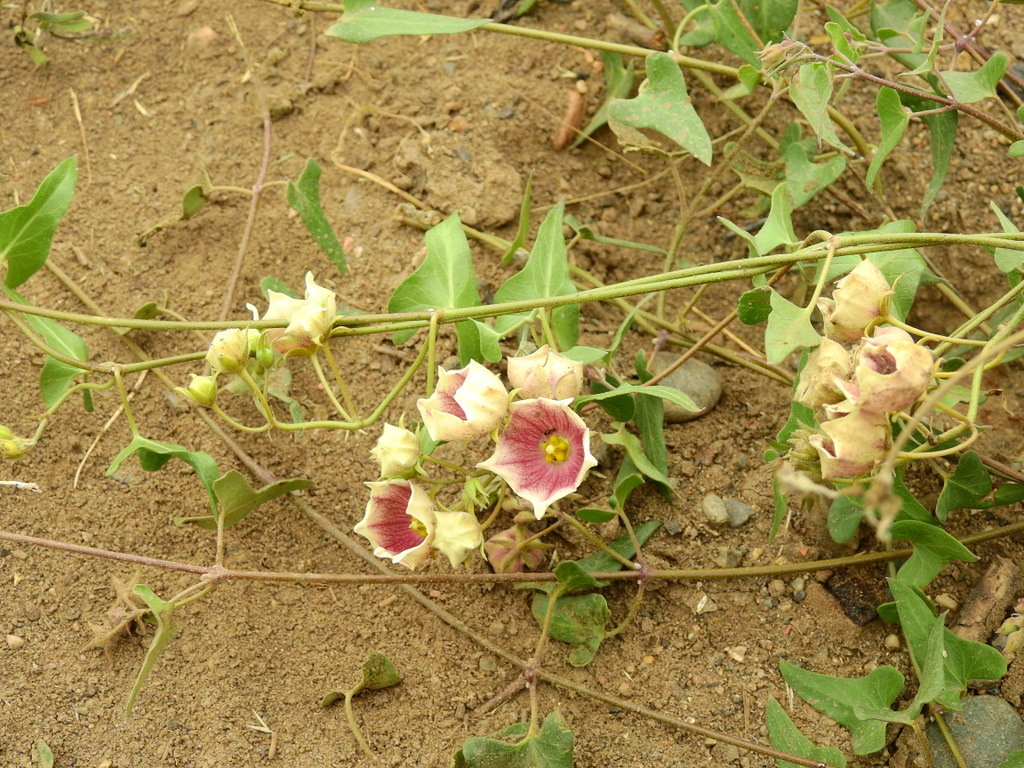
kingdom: Plantae
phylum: Tracheophyta
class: Magnoliopsida
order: Gentianales
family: Apocynaceae
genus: Philibertia
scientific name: Philibertia gilliesii
